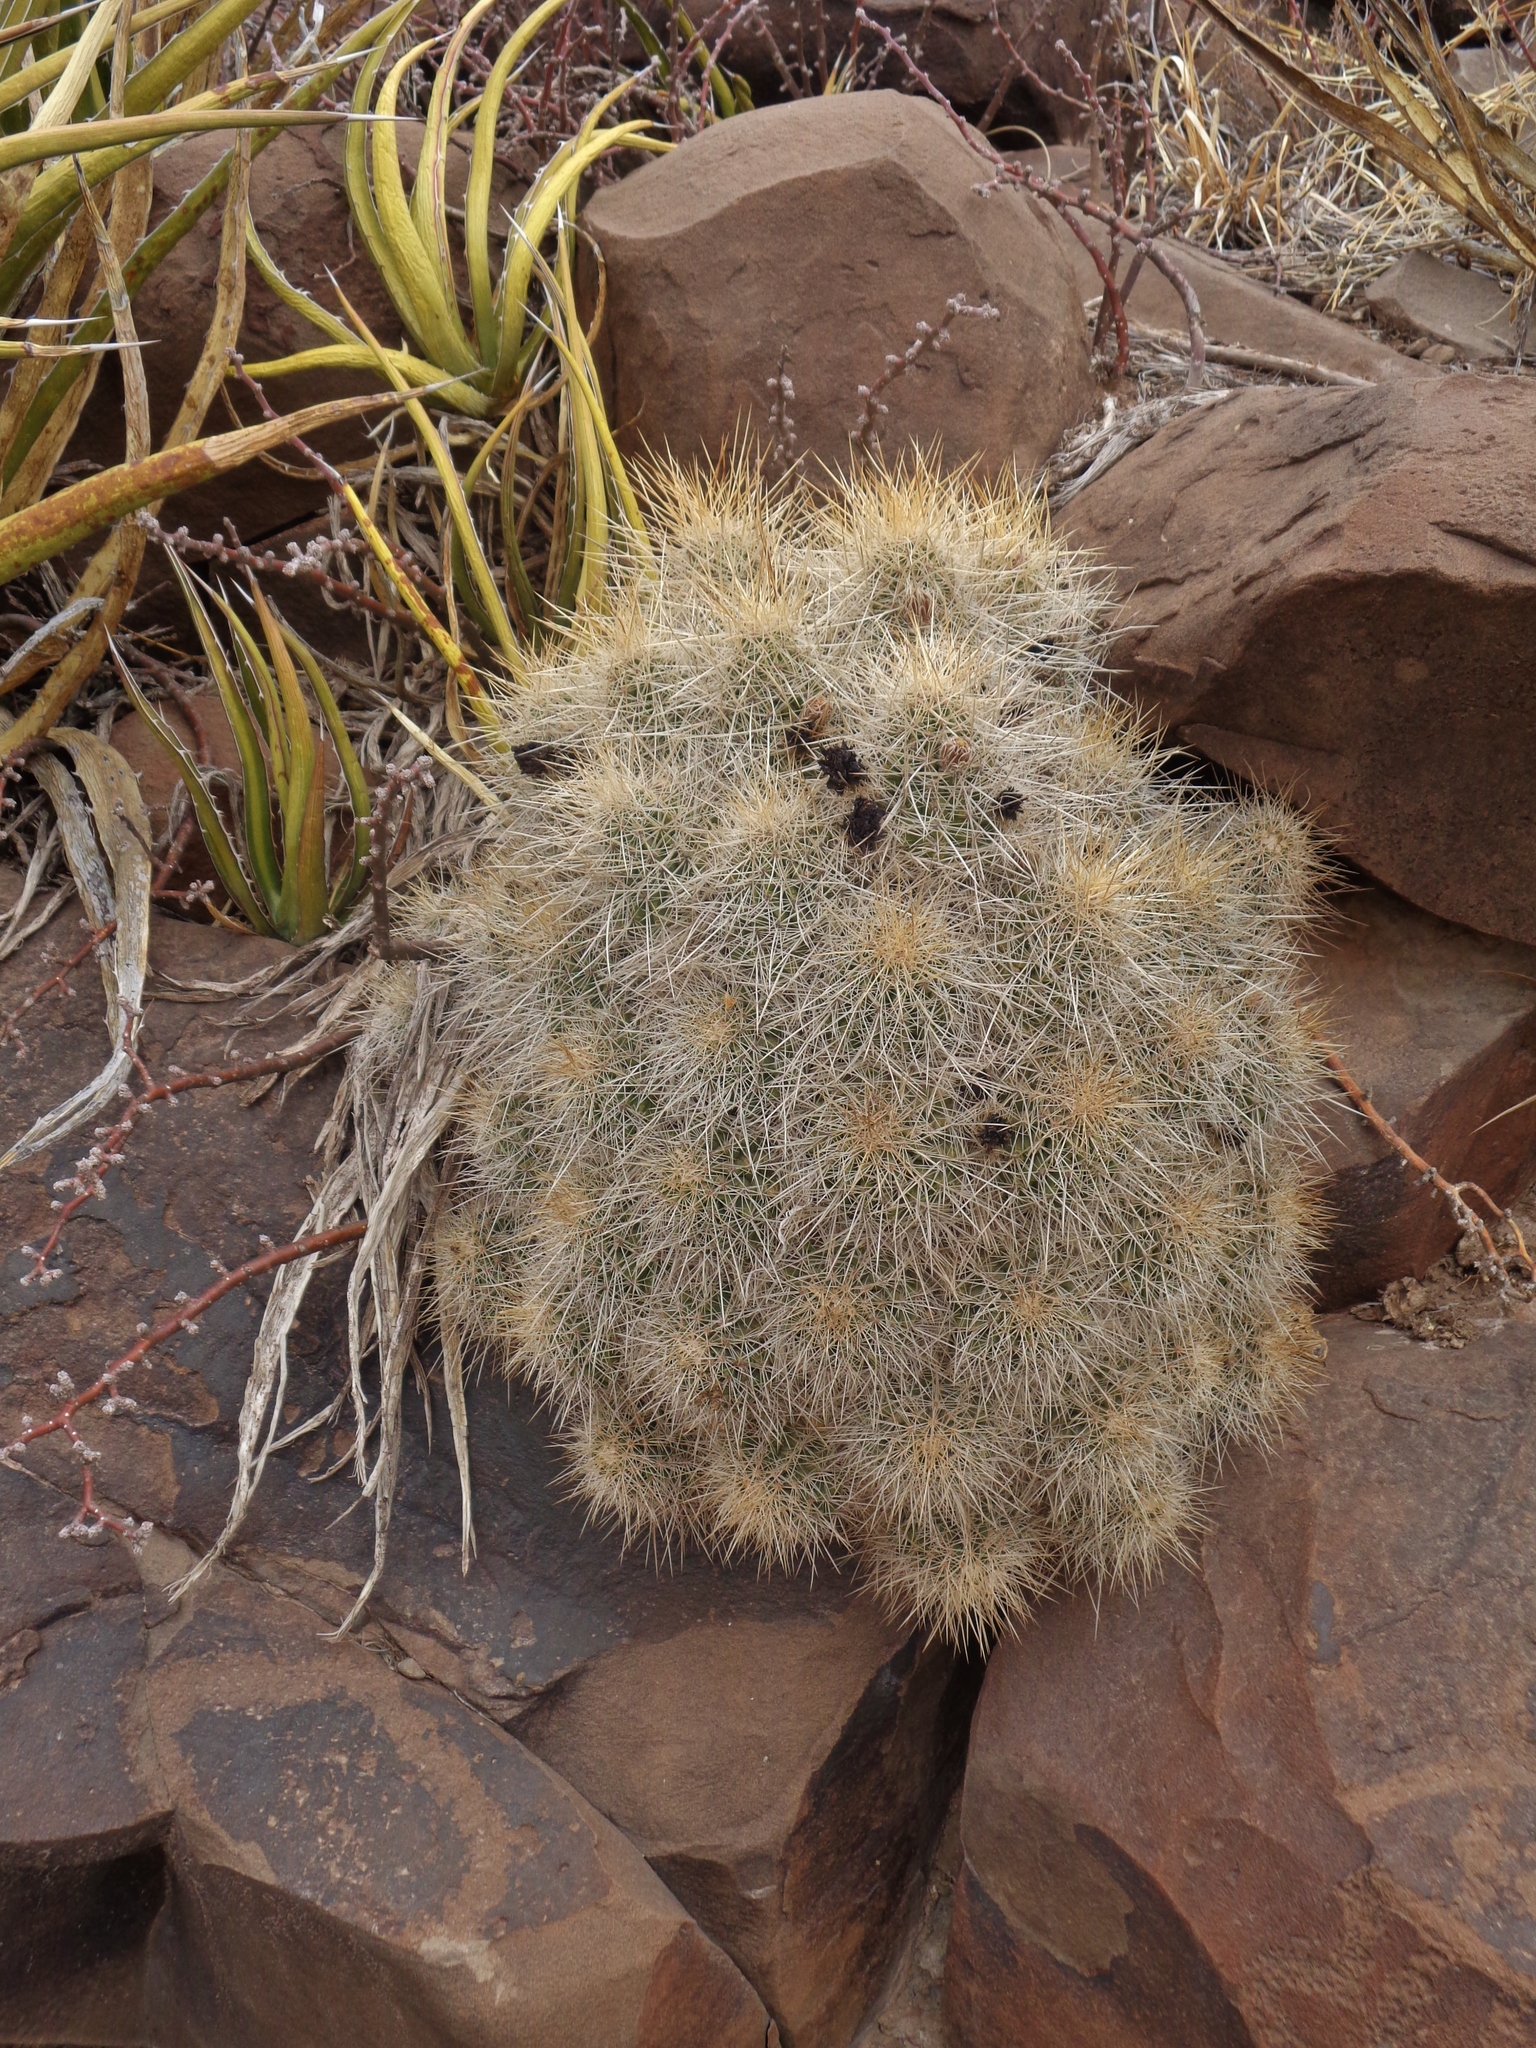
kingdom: Plantae
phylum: Tracheophyta
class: Magnoliopsida
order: Caryophyllales
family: Cactaceae
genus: Echinocereus
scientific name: Echinocereus stramineus
